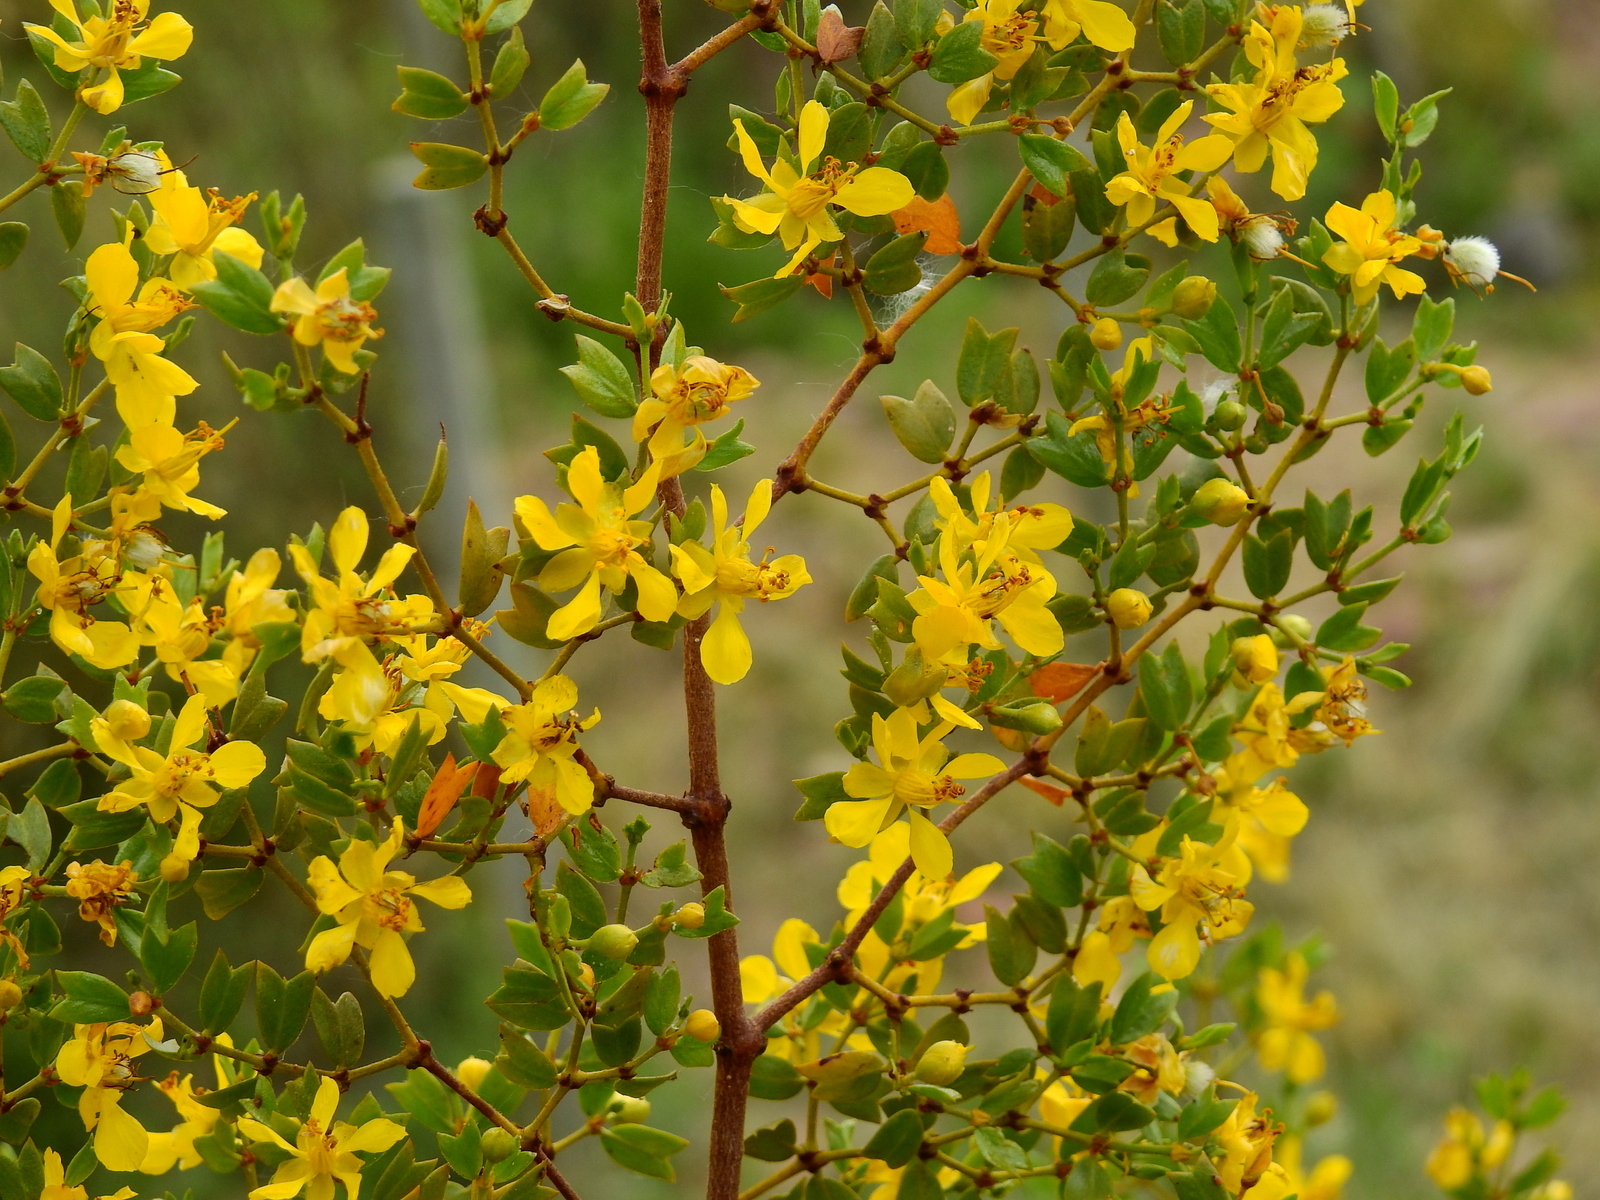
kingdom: Plantae
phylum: Tracheophyta
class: Magnoliopsida
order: Zygophyllales
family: Zygophyllaceae
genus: Larrea
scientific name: Larrea cuneifolia
